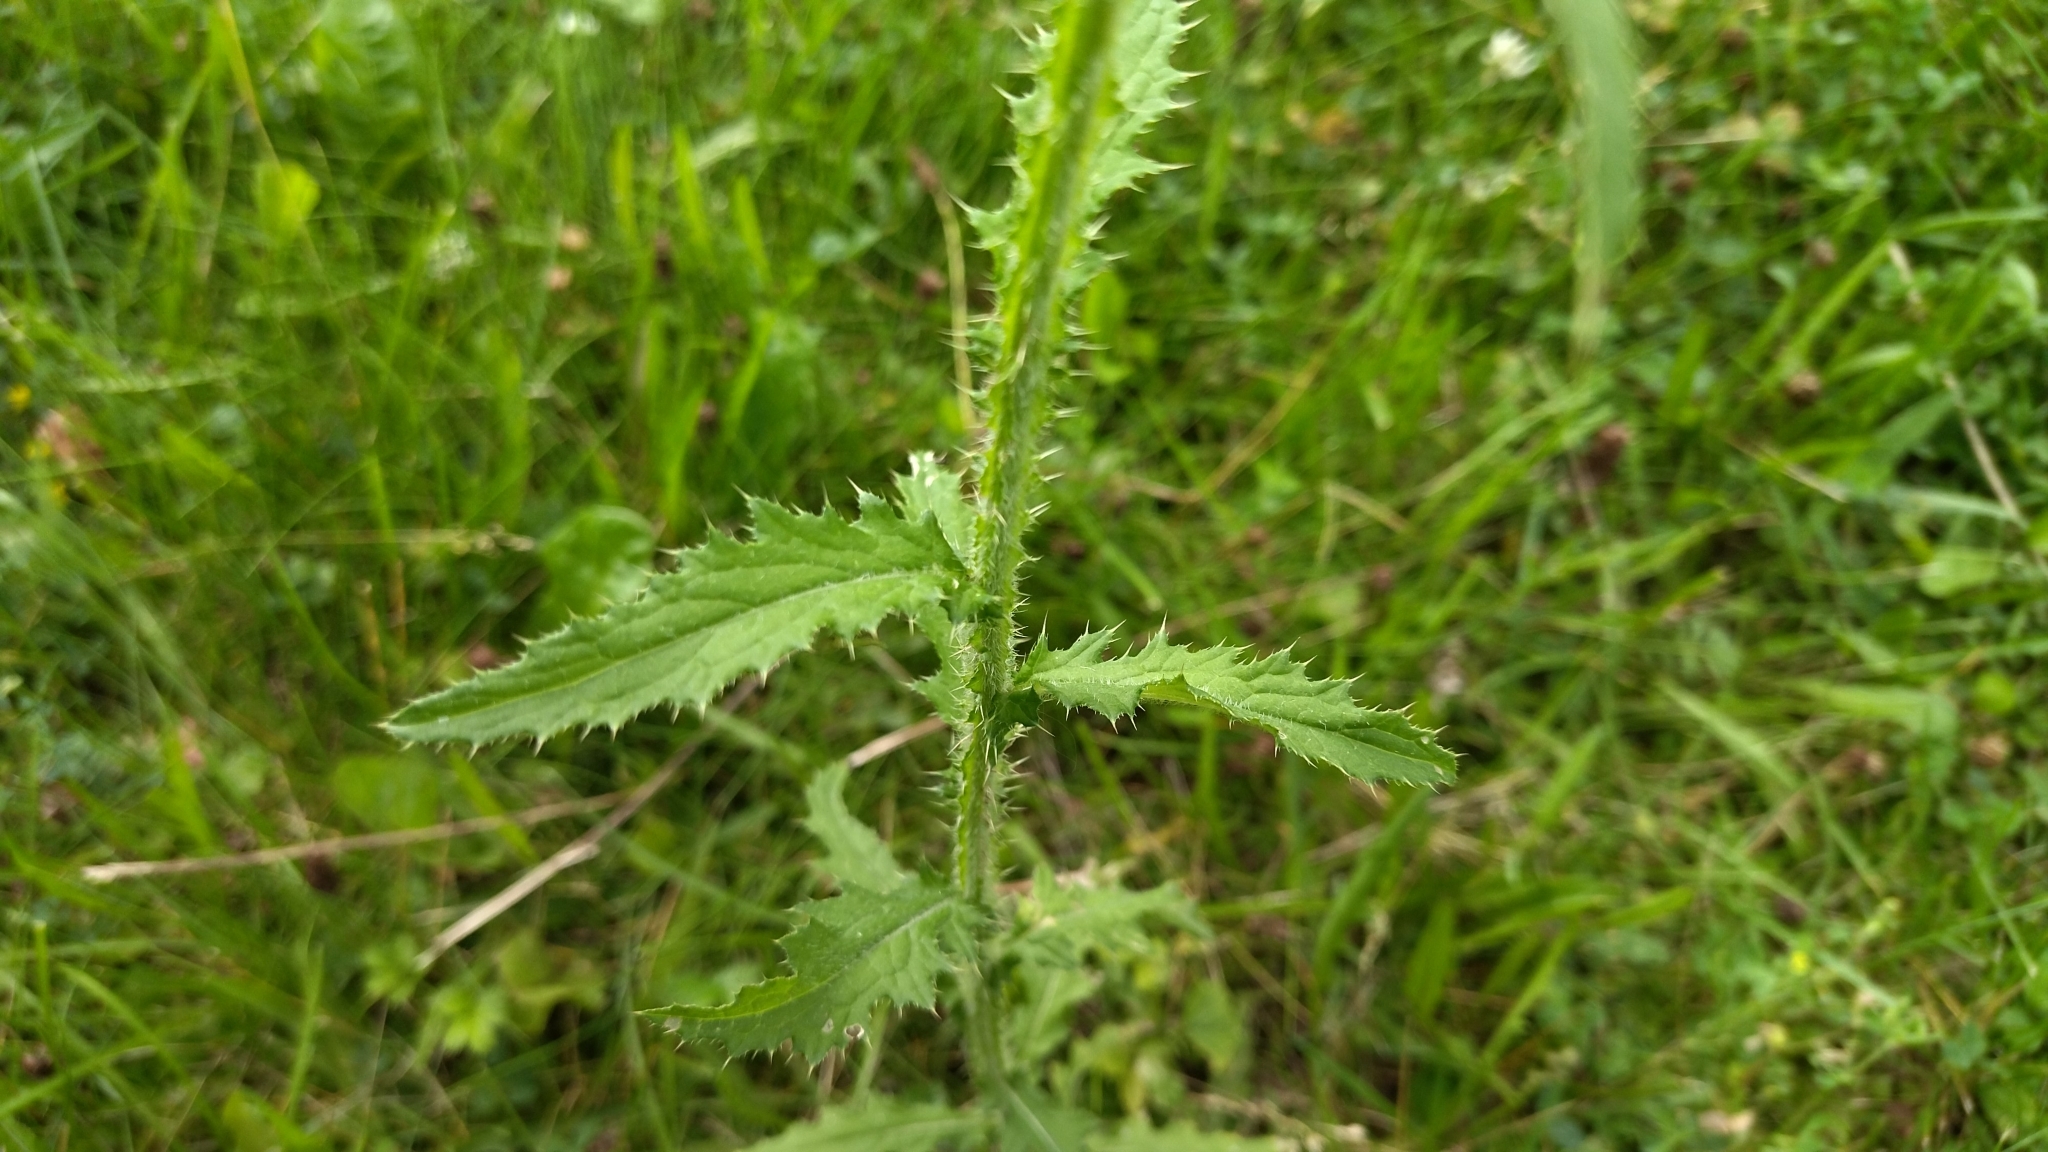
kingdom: Plantae
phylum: Tracheophyta
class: Magnoliopsida
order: Asterales
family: Asteraceae
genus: Carduus
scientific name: Carduus crispus
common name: Welted thistle
